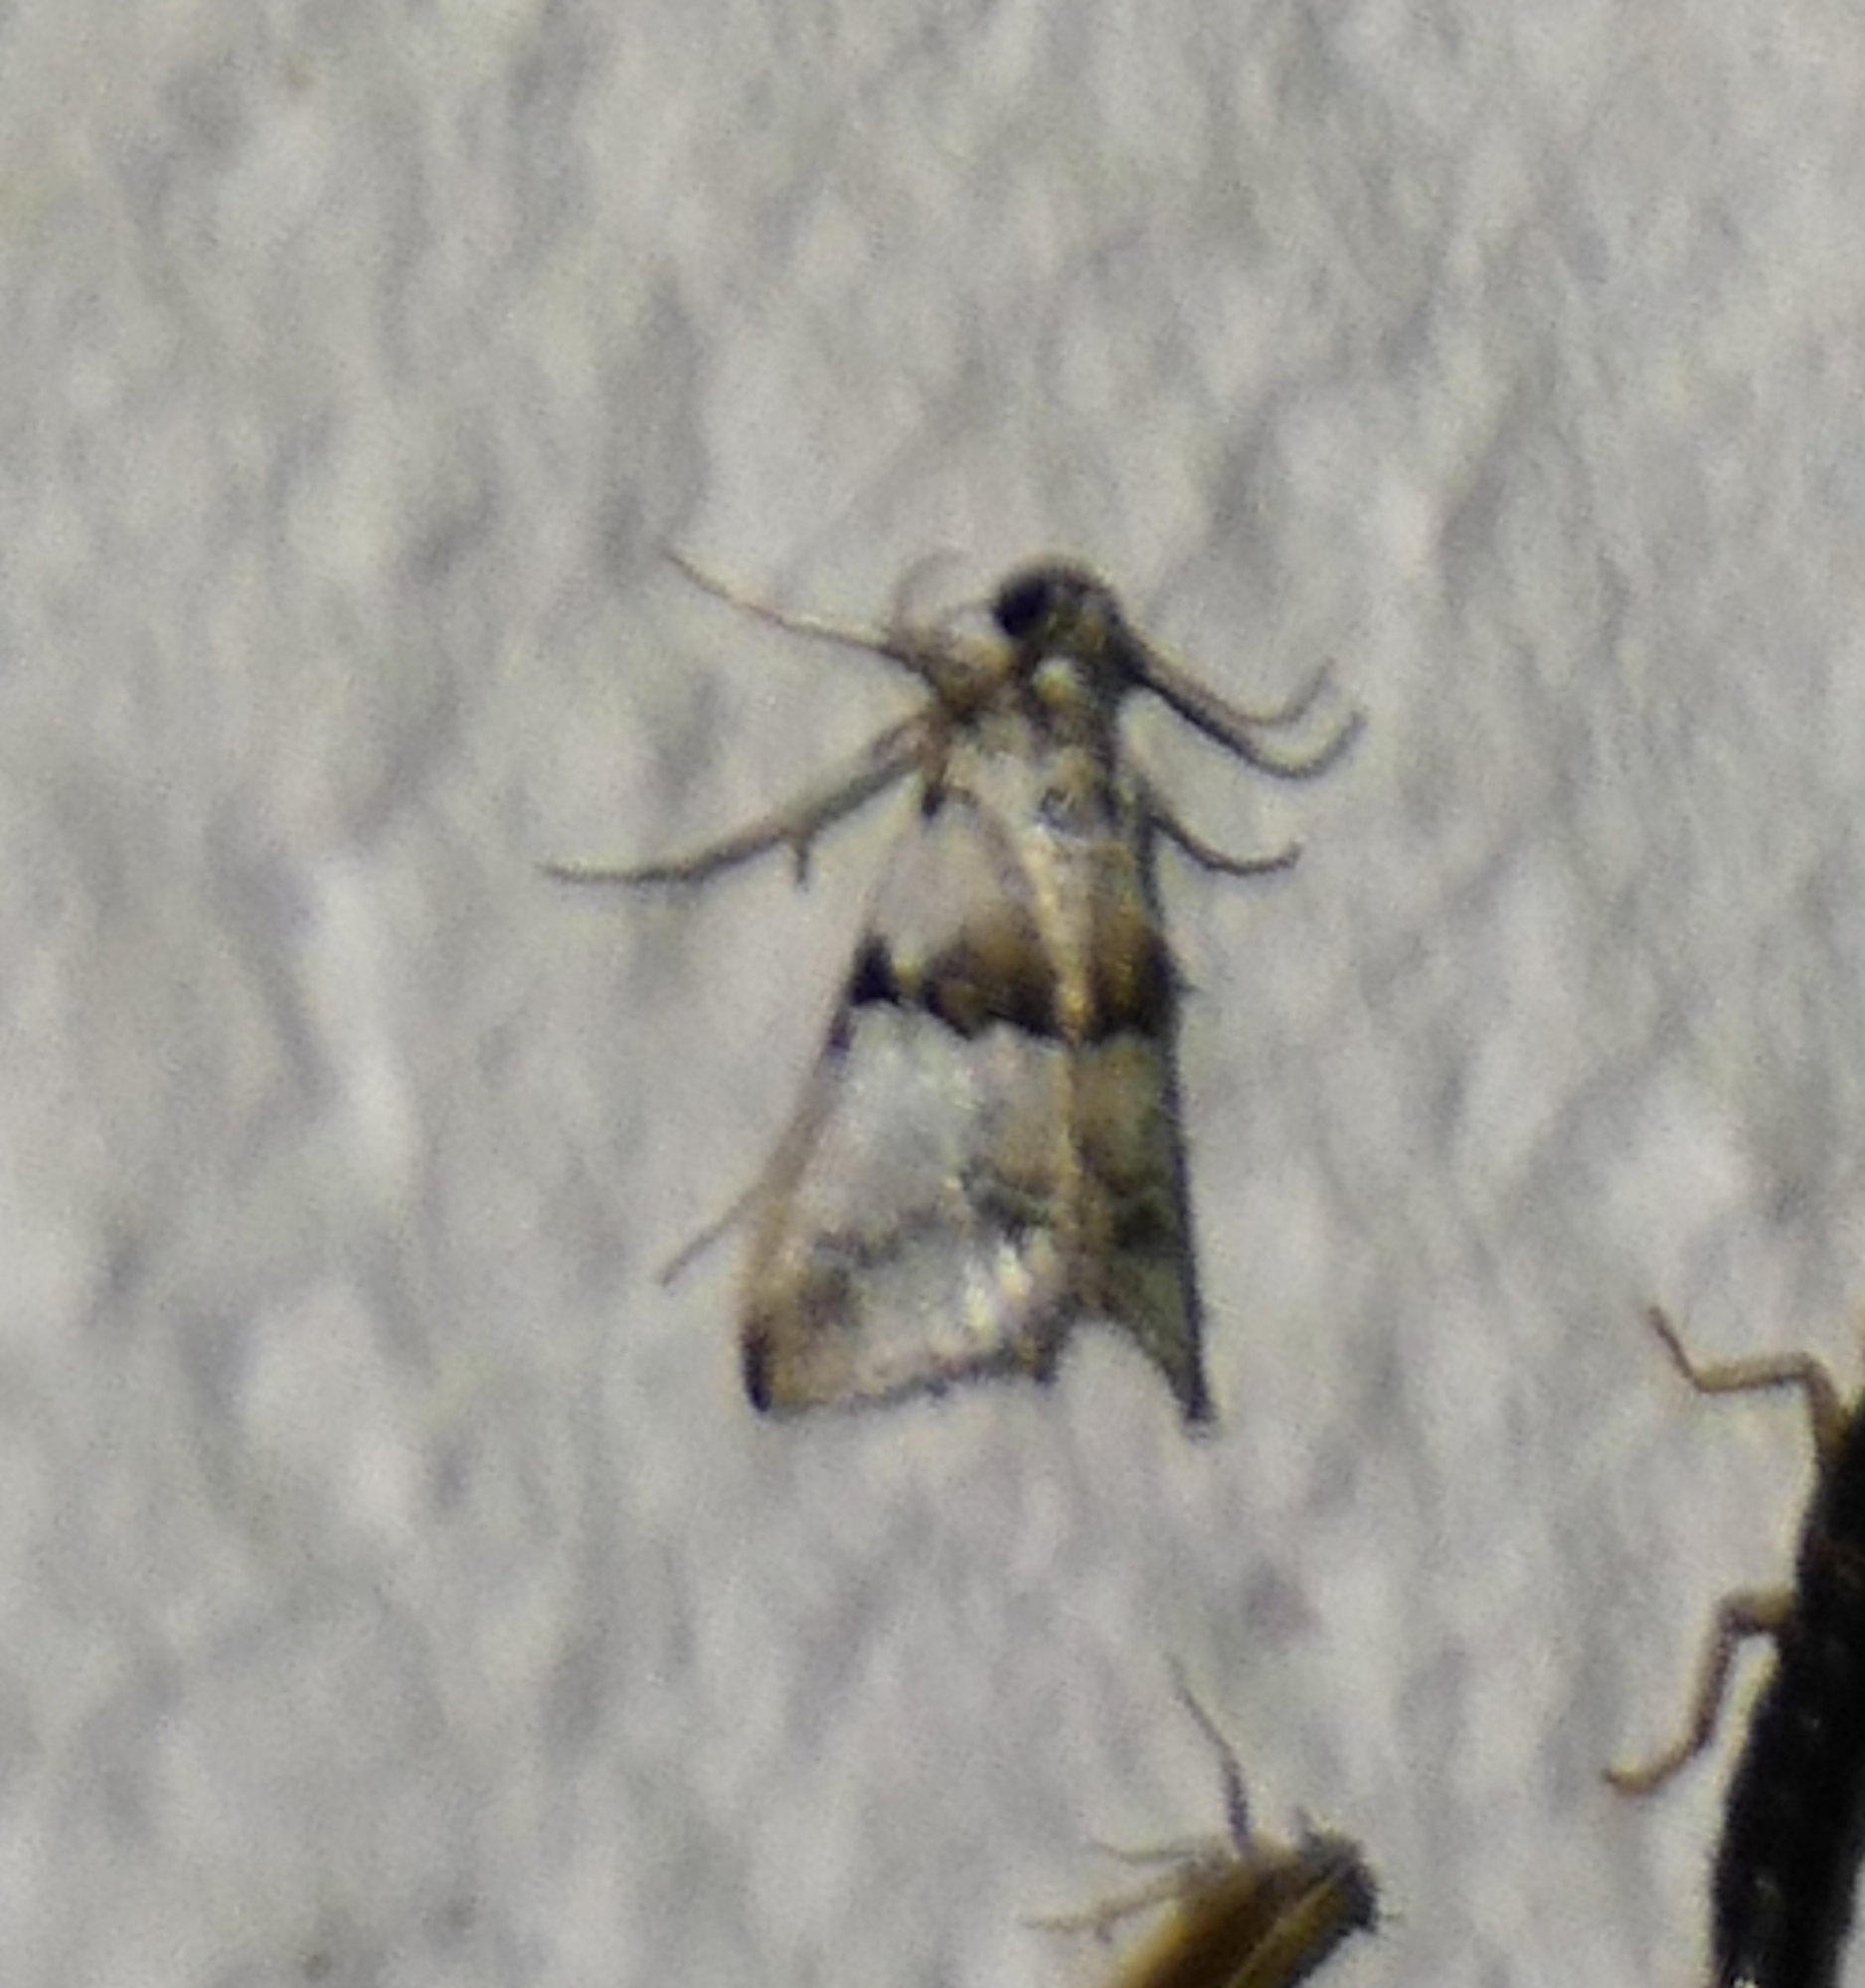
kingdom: Animalia
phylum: Arthropoda
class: Insecta
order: Lepidoptera
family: Pyralidae
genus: Tallula
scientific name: Tallula atrifascialis
